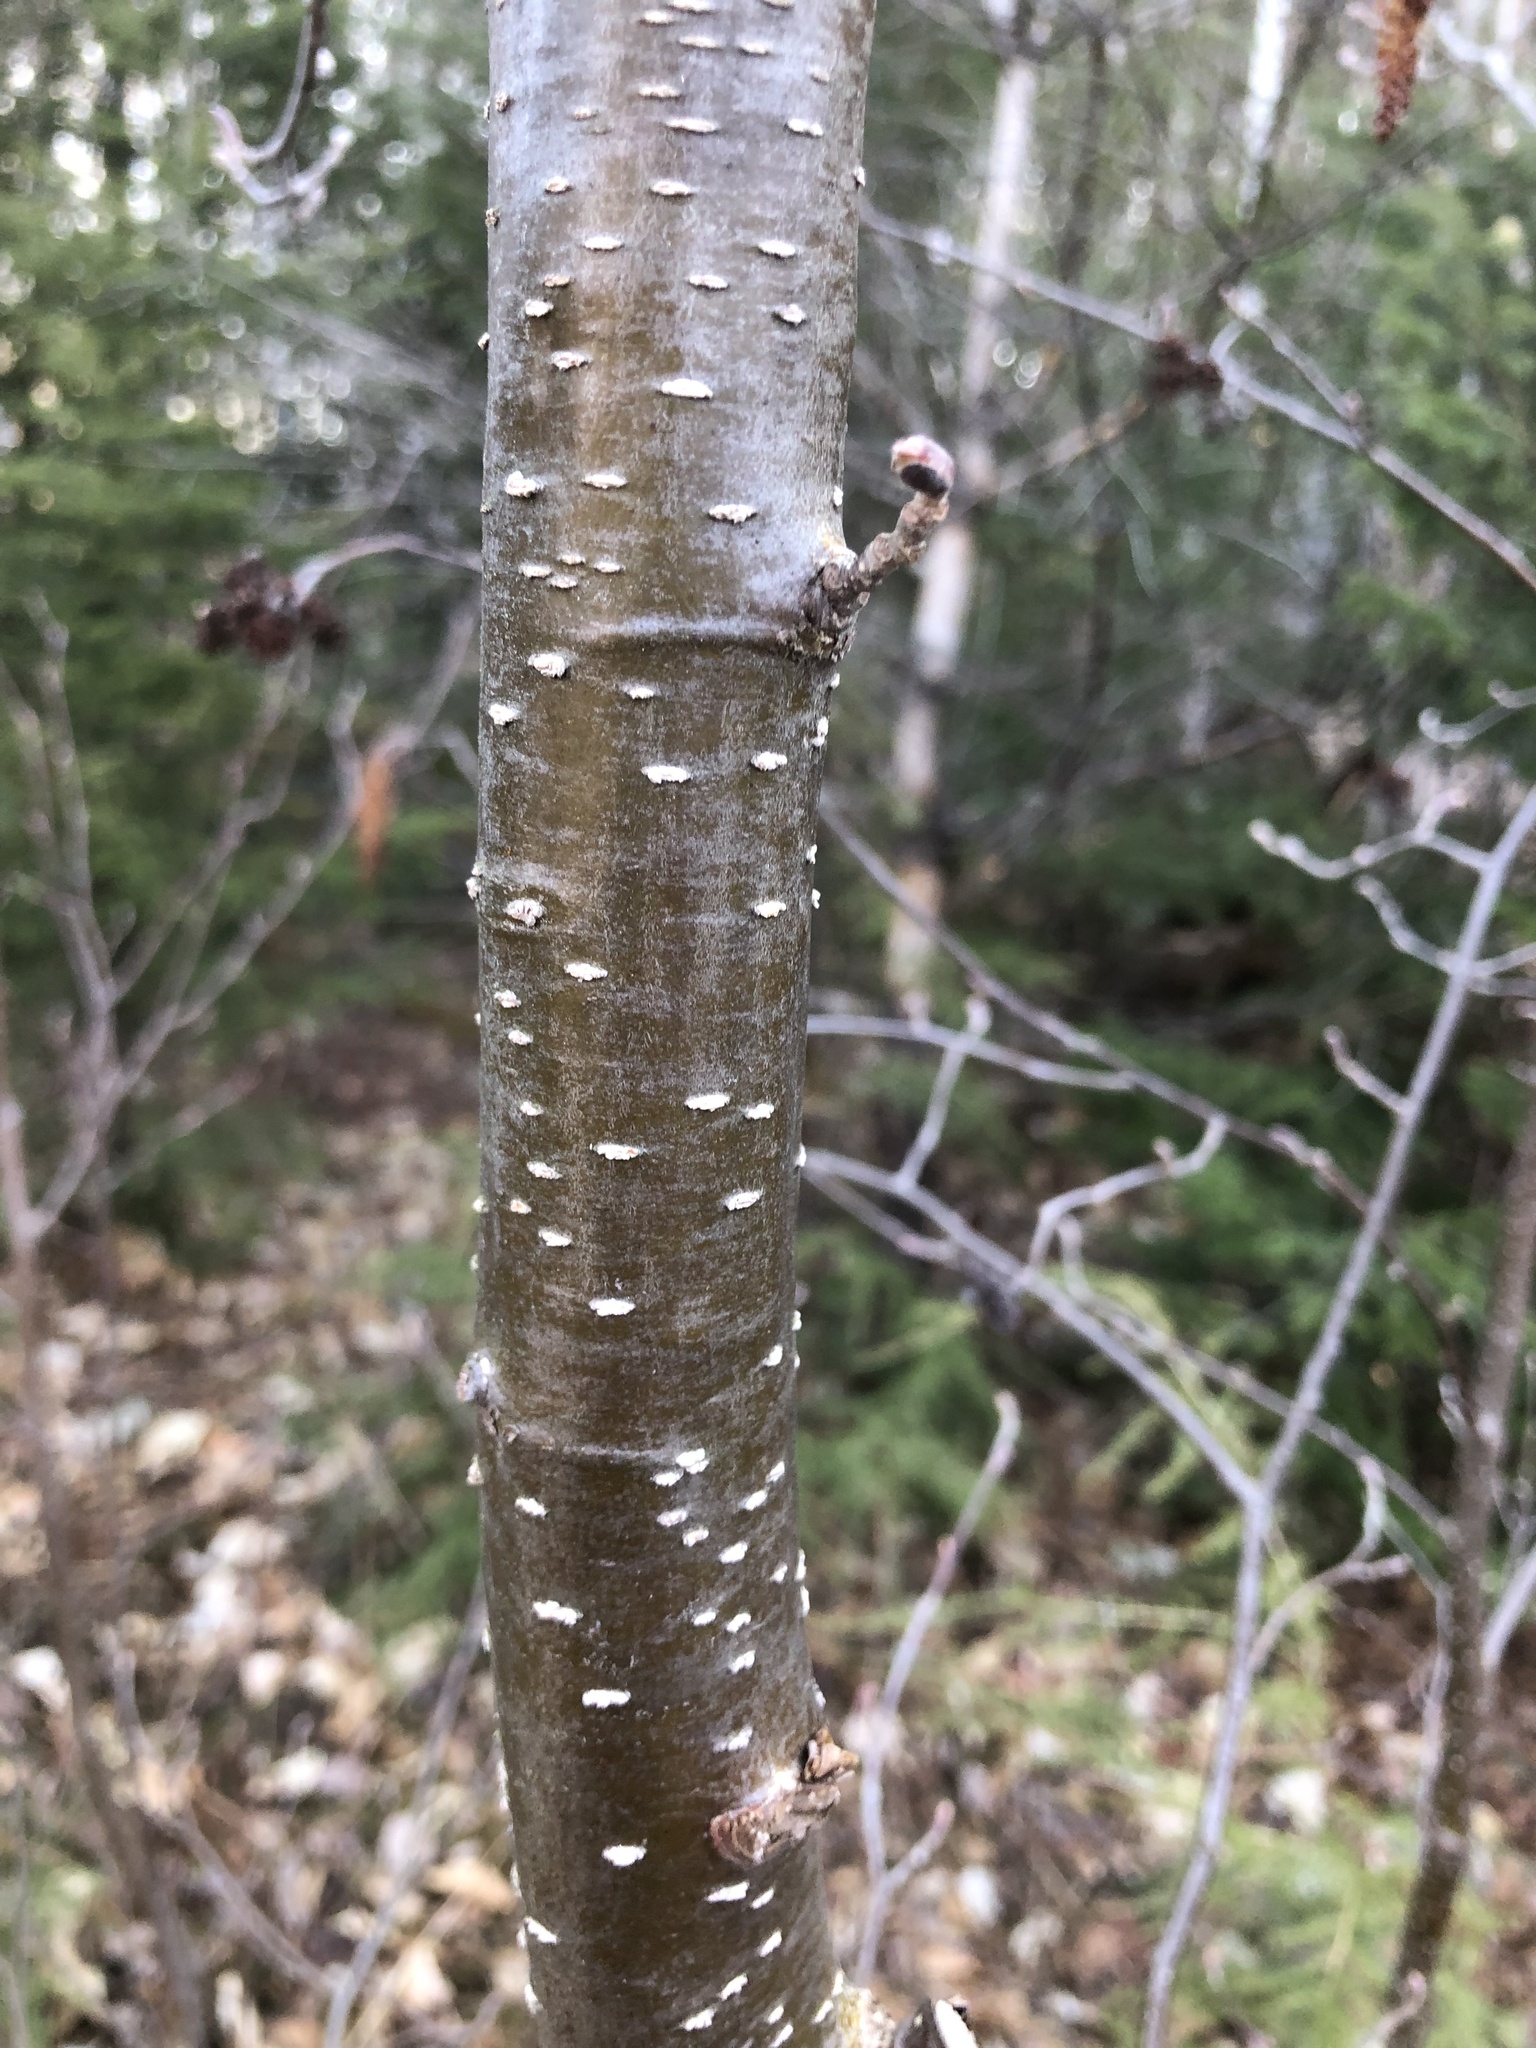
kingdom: Plantae
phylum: Tracheophyta
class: Magnoliopsida
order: Fagales
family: Betulaceae
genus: Alnus
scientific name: Alnus incana
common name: Grey alder
